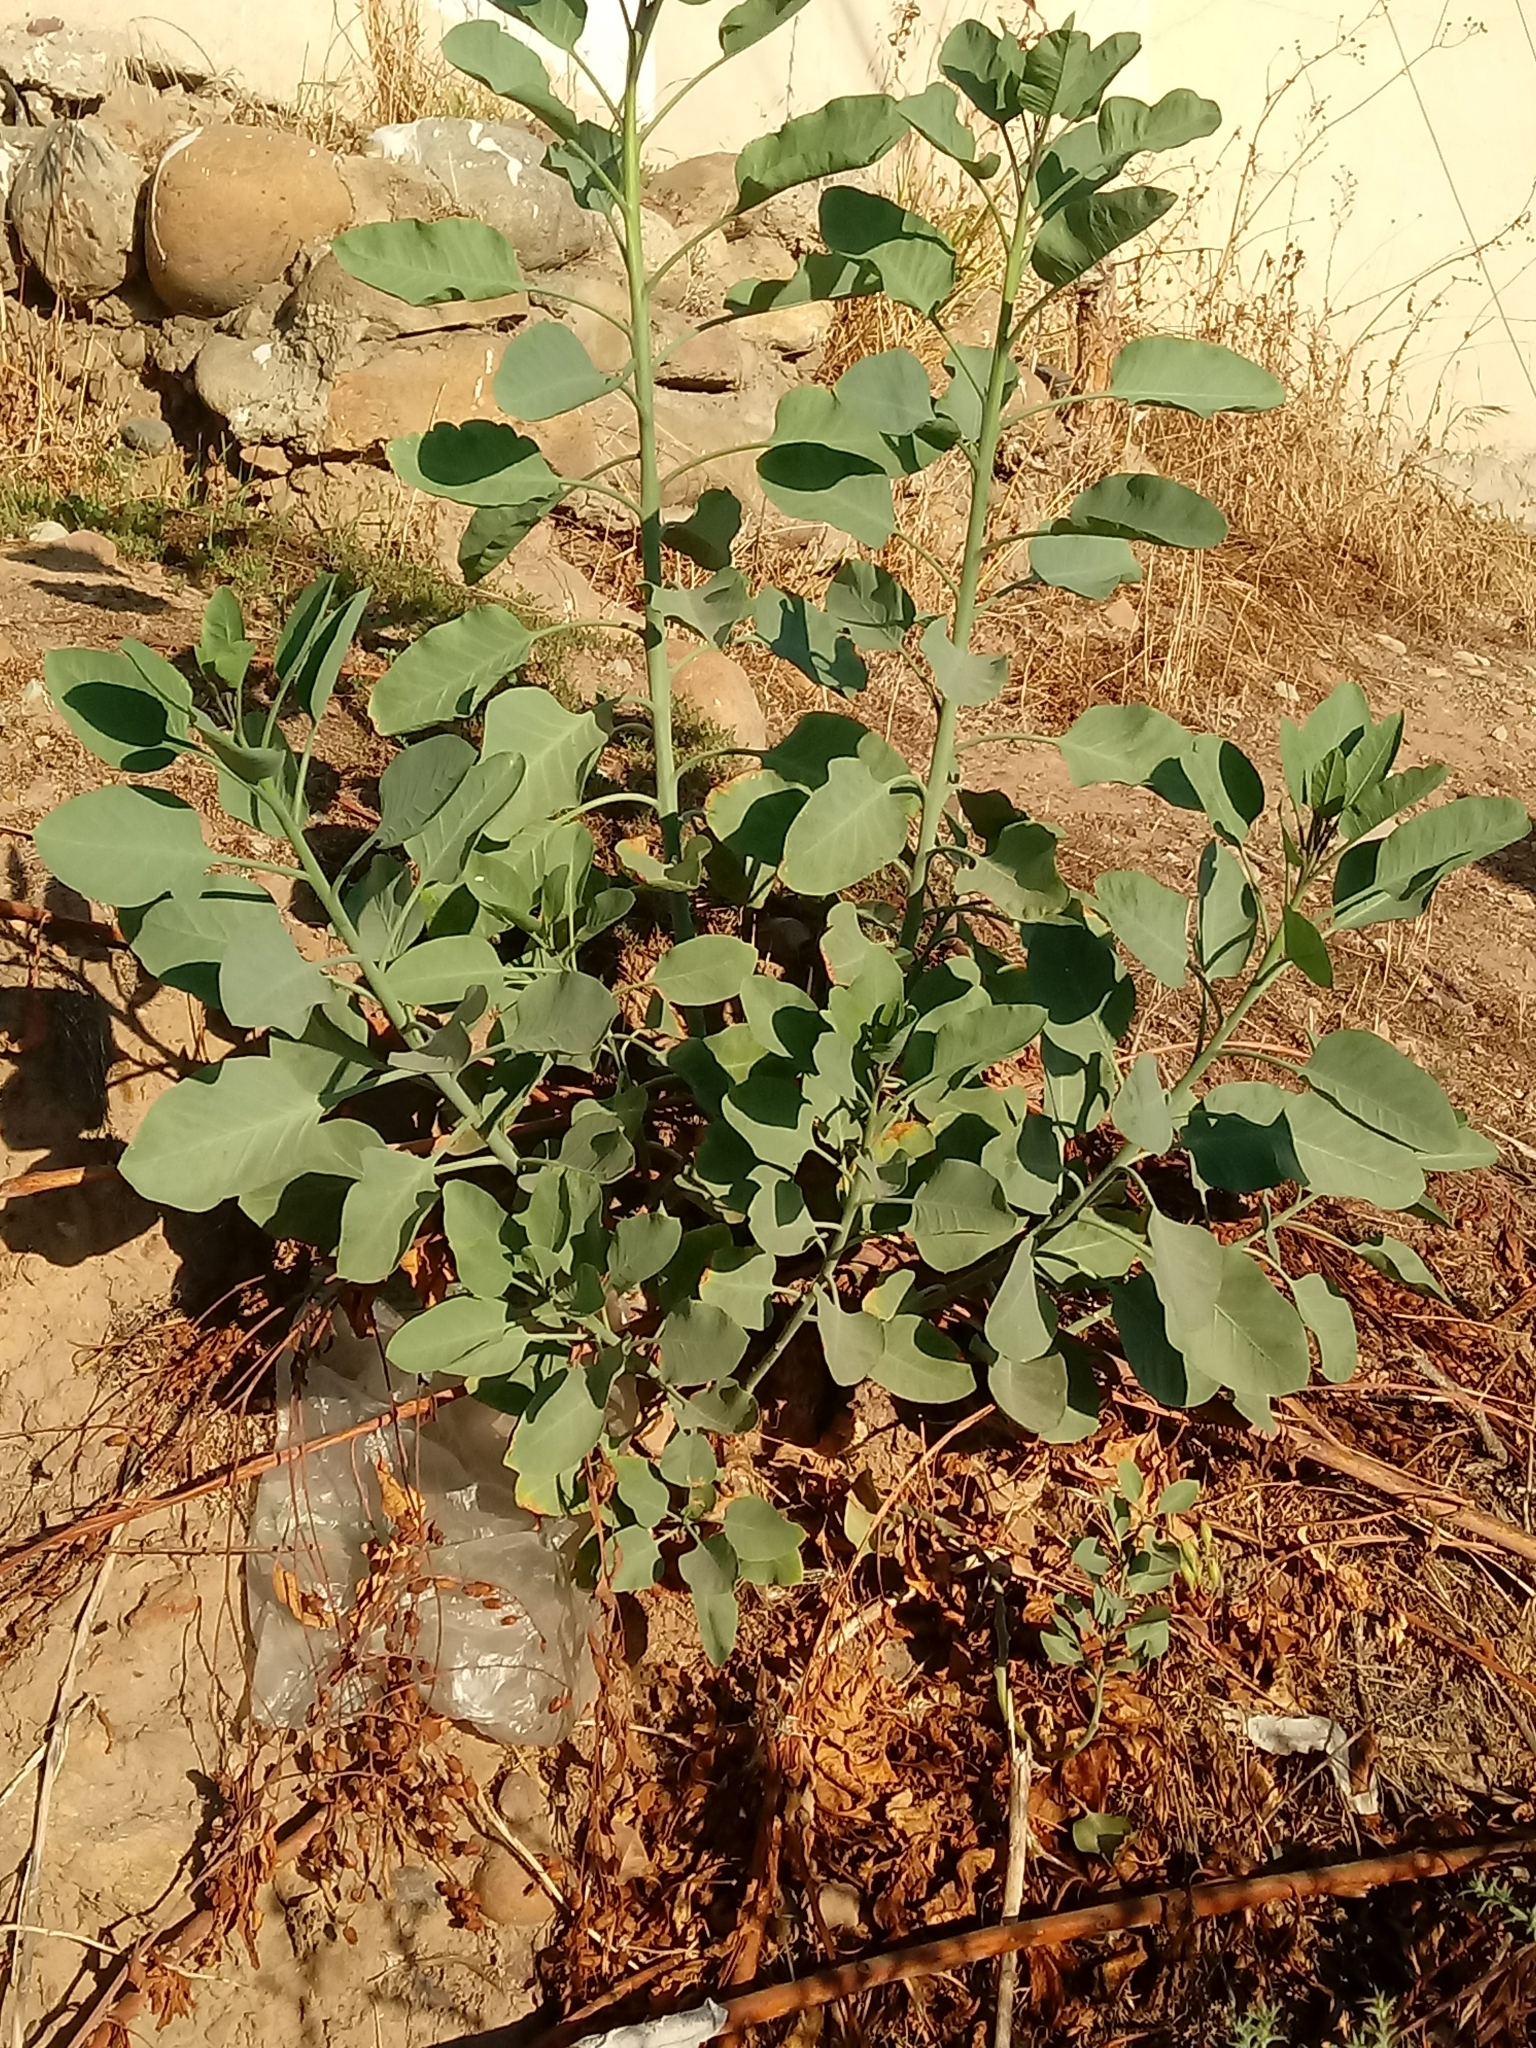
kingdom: Plantae
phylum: Tracheophyta
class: Magnoliopsida
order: Solanales
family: Solanaceae
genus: Nicotiana
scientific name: Nicotiana glauca
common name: Tree tobacco
